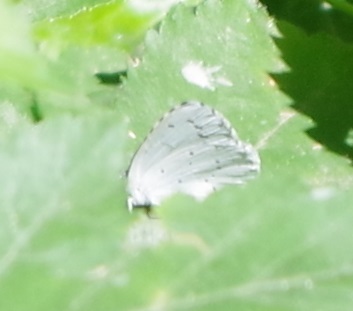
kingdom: Animalia
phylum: Arthropoda
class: Insecta
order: Lepidoptera
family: Lycaenidae
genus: Celastrina
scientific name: Celastrina argiolus
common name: Holly blue
